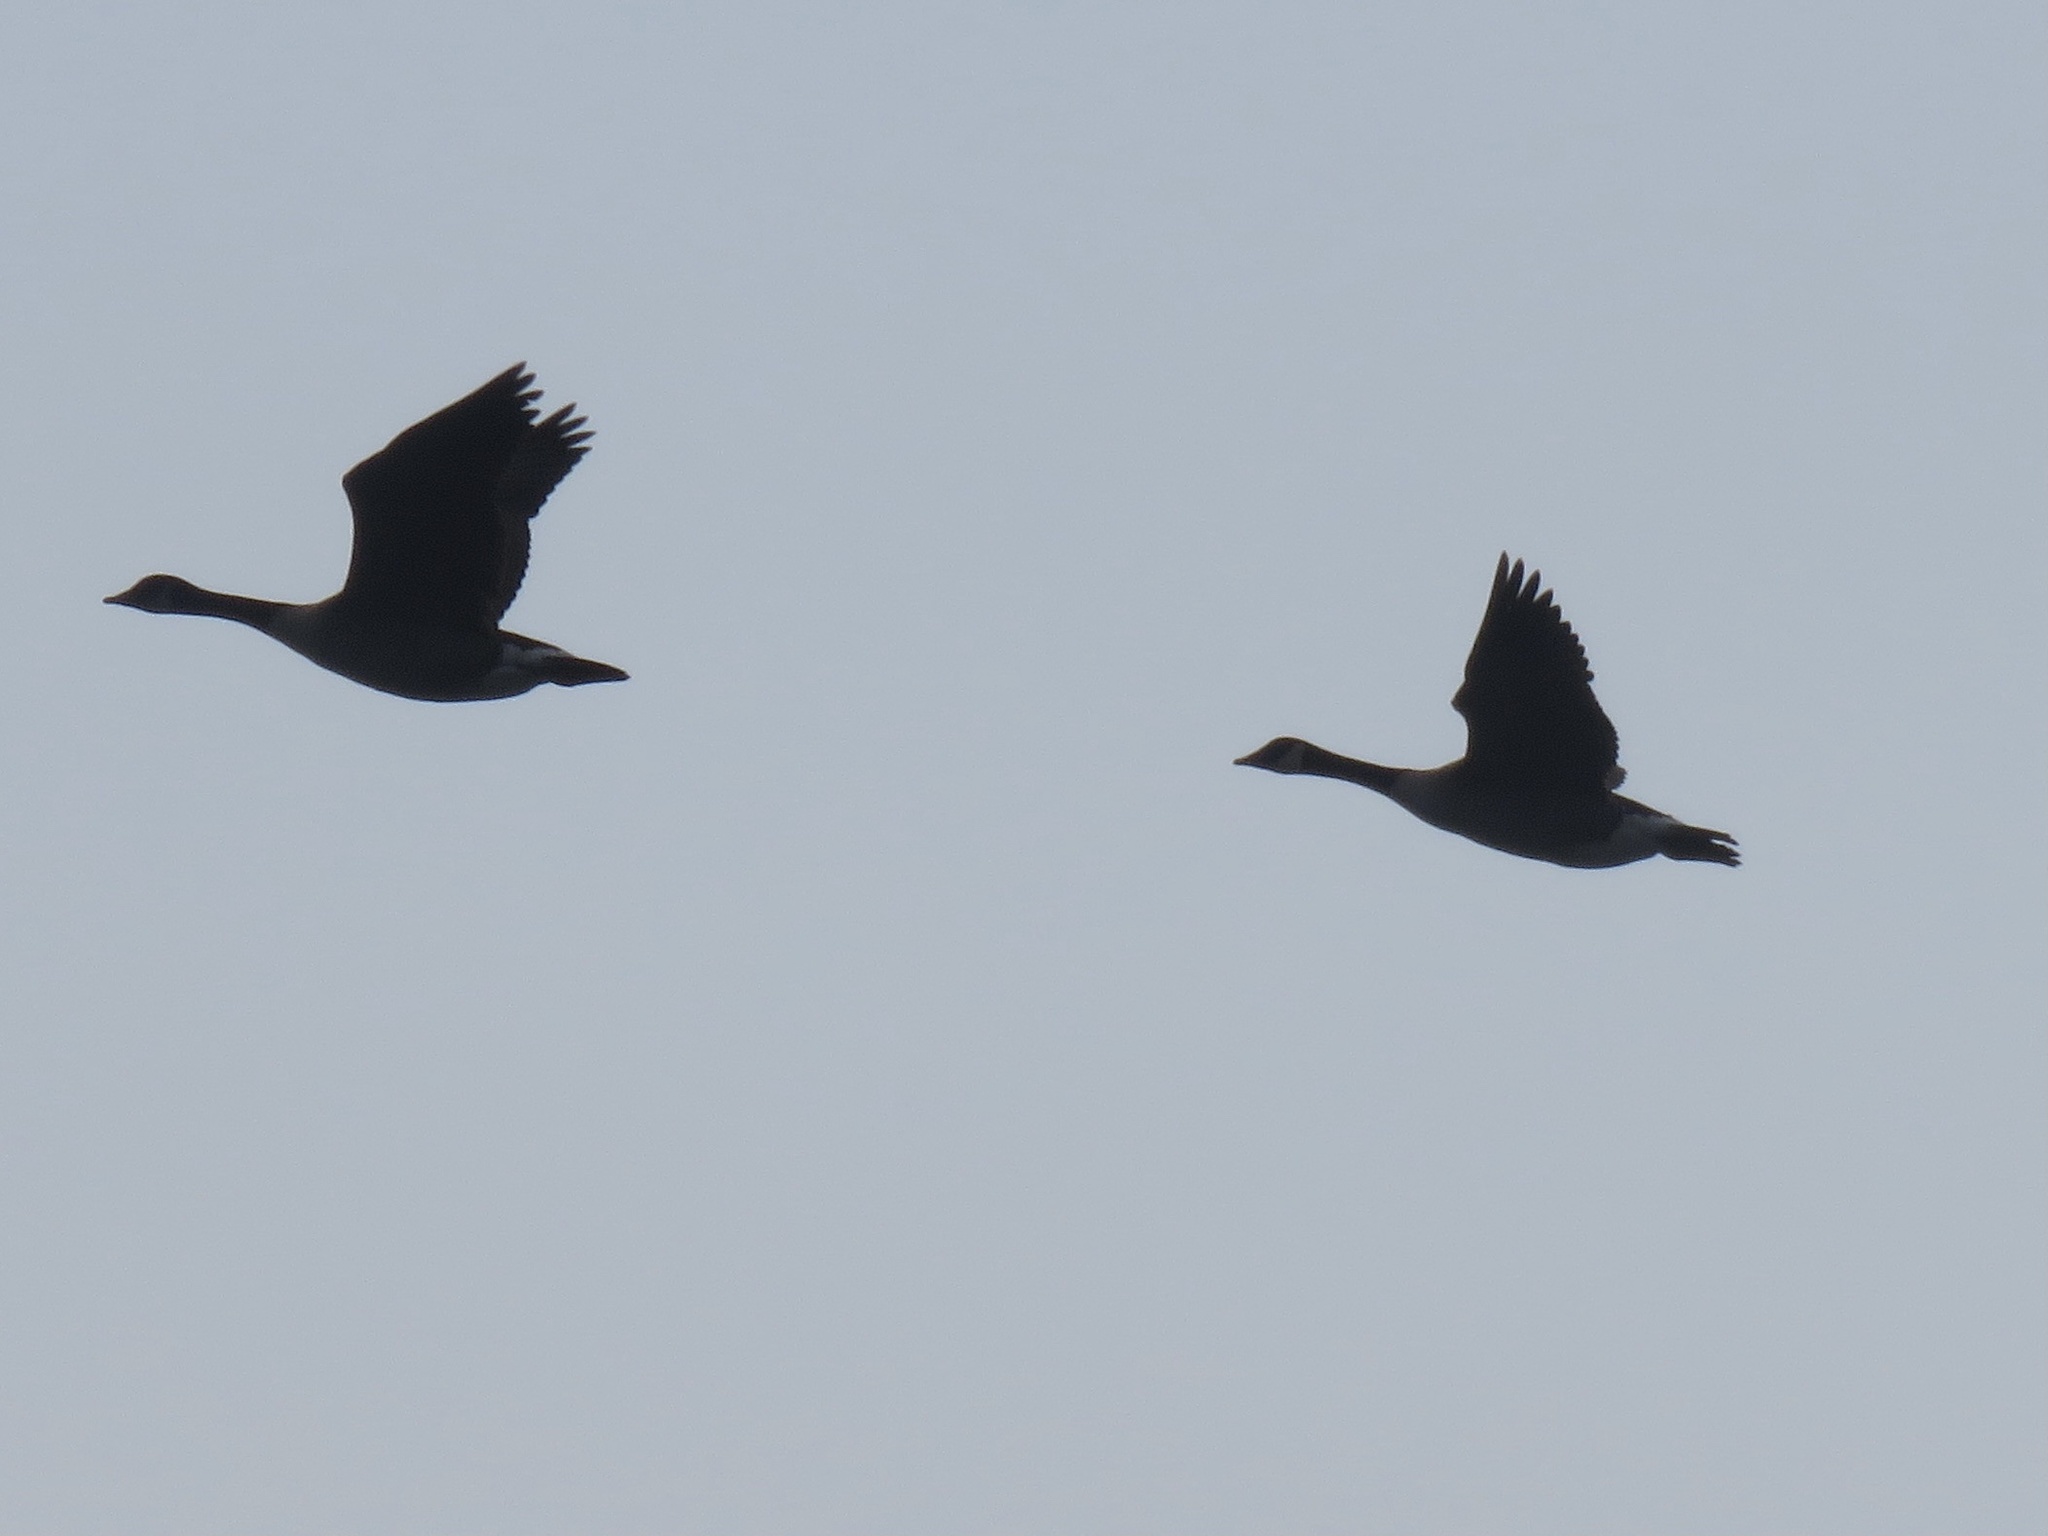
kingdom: Animalia
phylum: Chordata
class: Aves
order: Anseriformes
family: Anatidae
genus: Branta
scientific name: Branta canadensis
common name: Canada goose
